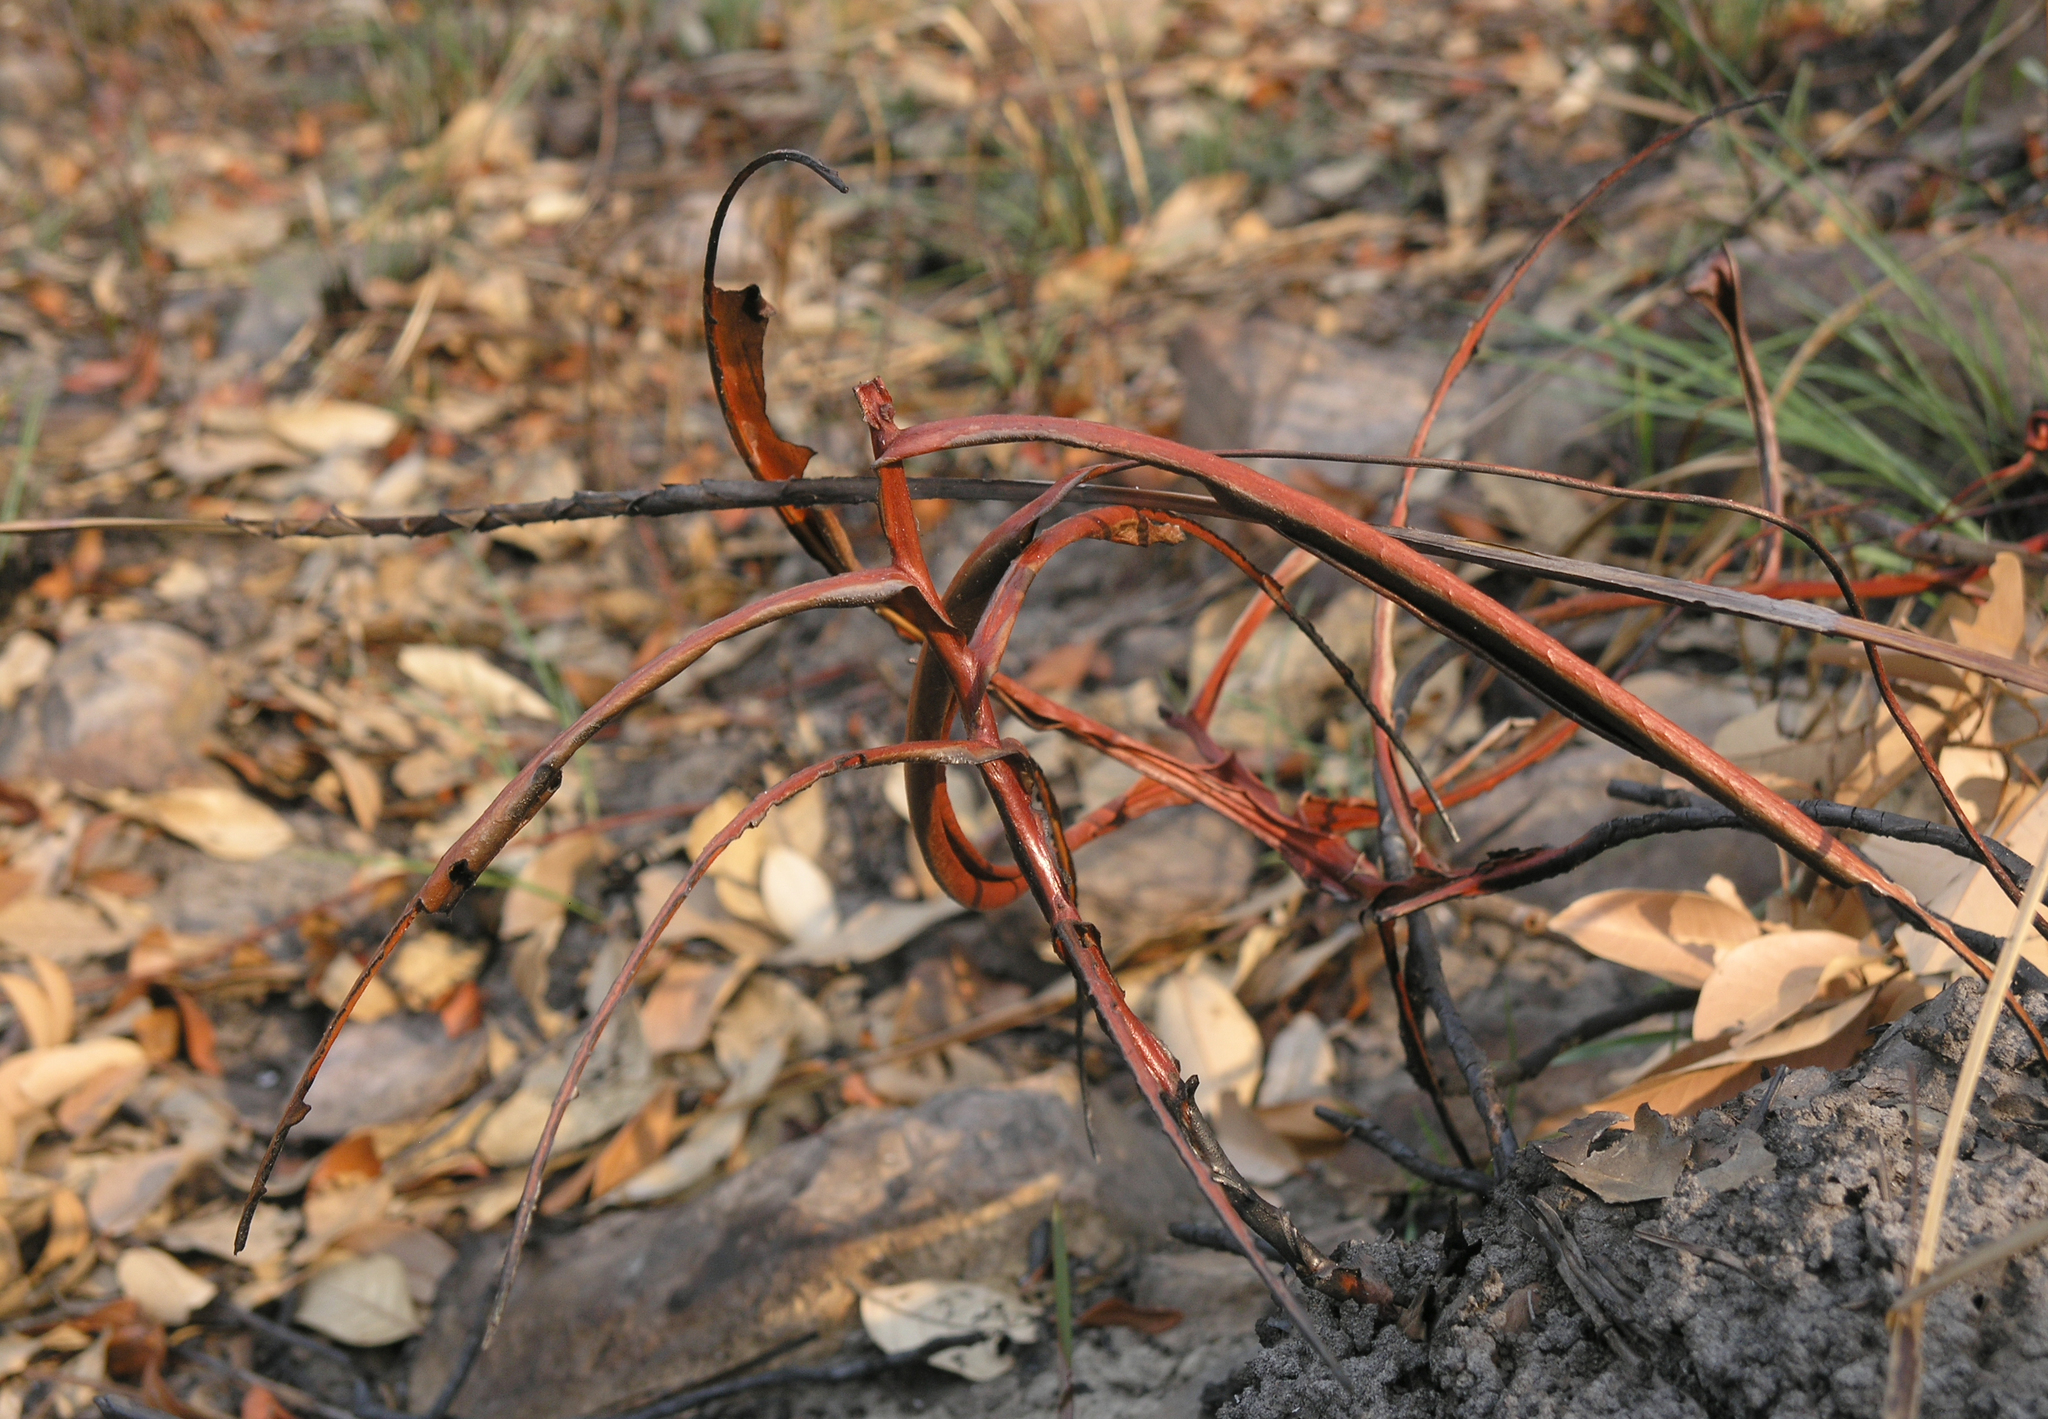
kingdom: Plantae
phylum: Tracheophyta
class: Magnoliopsida
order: Caryophyllales
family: Nepenthaceae
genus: Nepenthes
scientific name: Nepenthes holdenii
